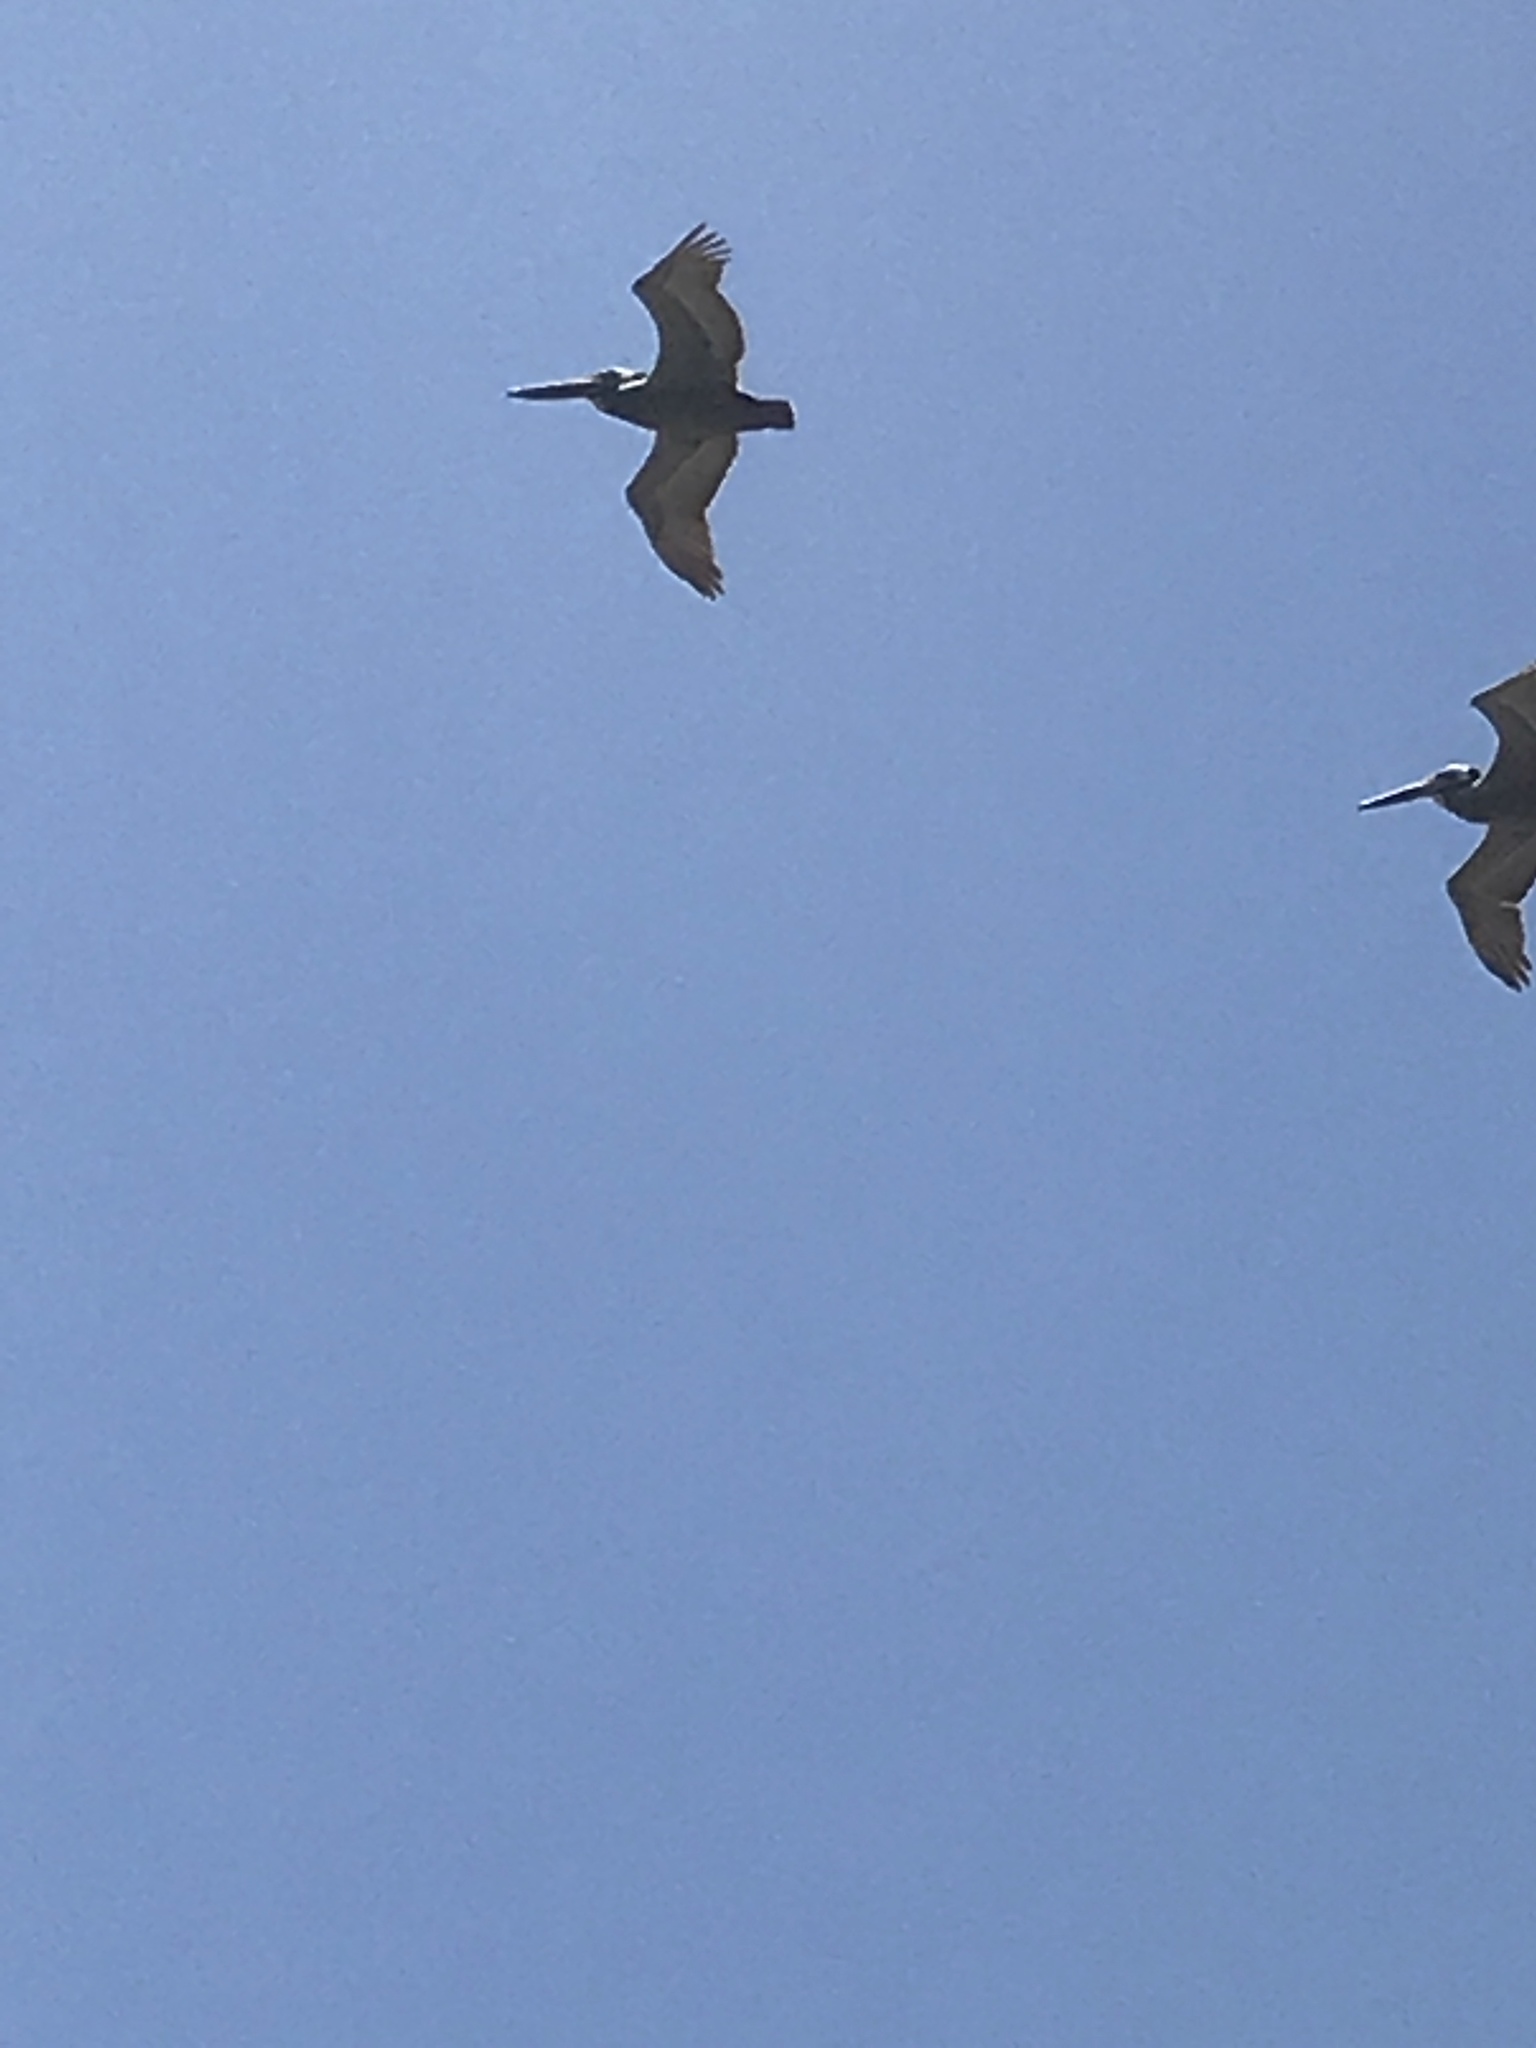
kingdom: Animalia
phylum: Chordata
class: Aves
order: Pelecaniformes
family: Pelecanidae
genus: Pelecanus
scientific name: Pelecanus occidentalis
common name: Brown pelican
